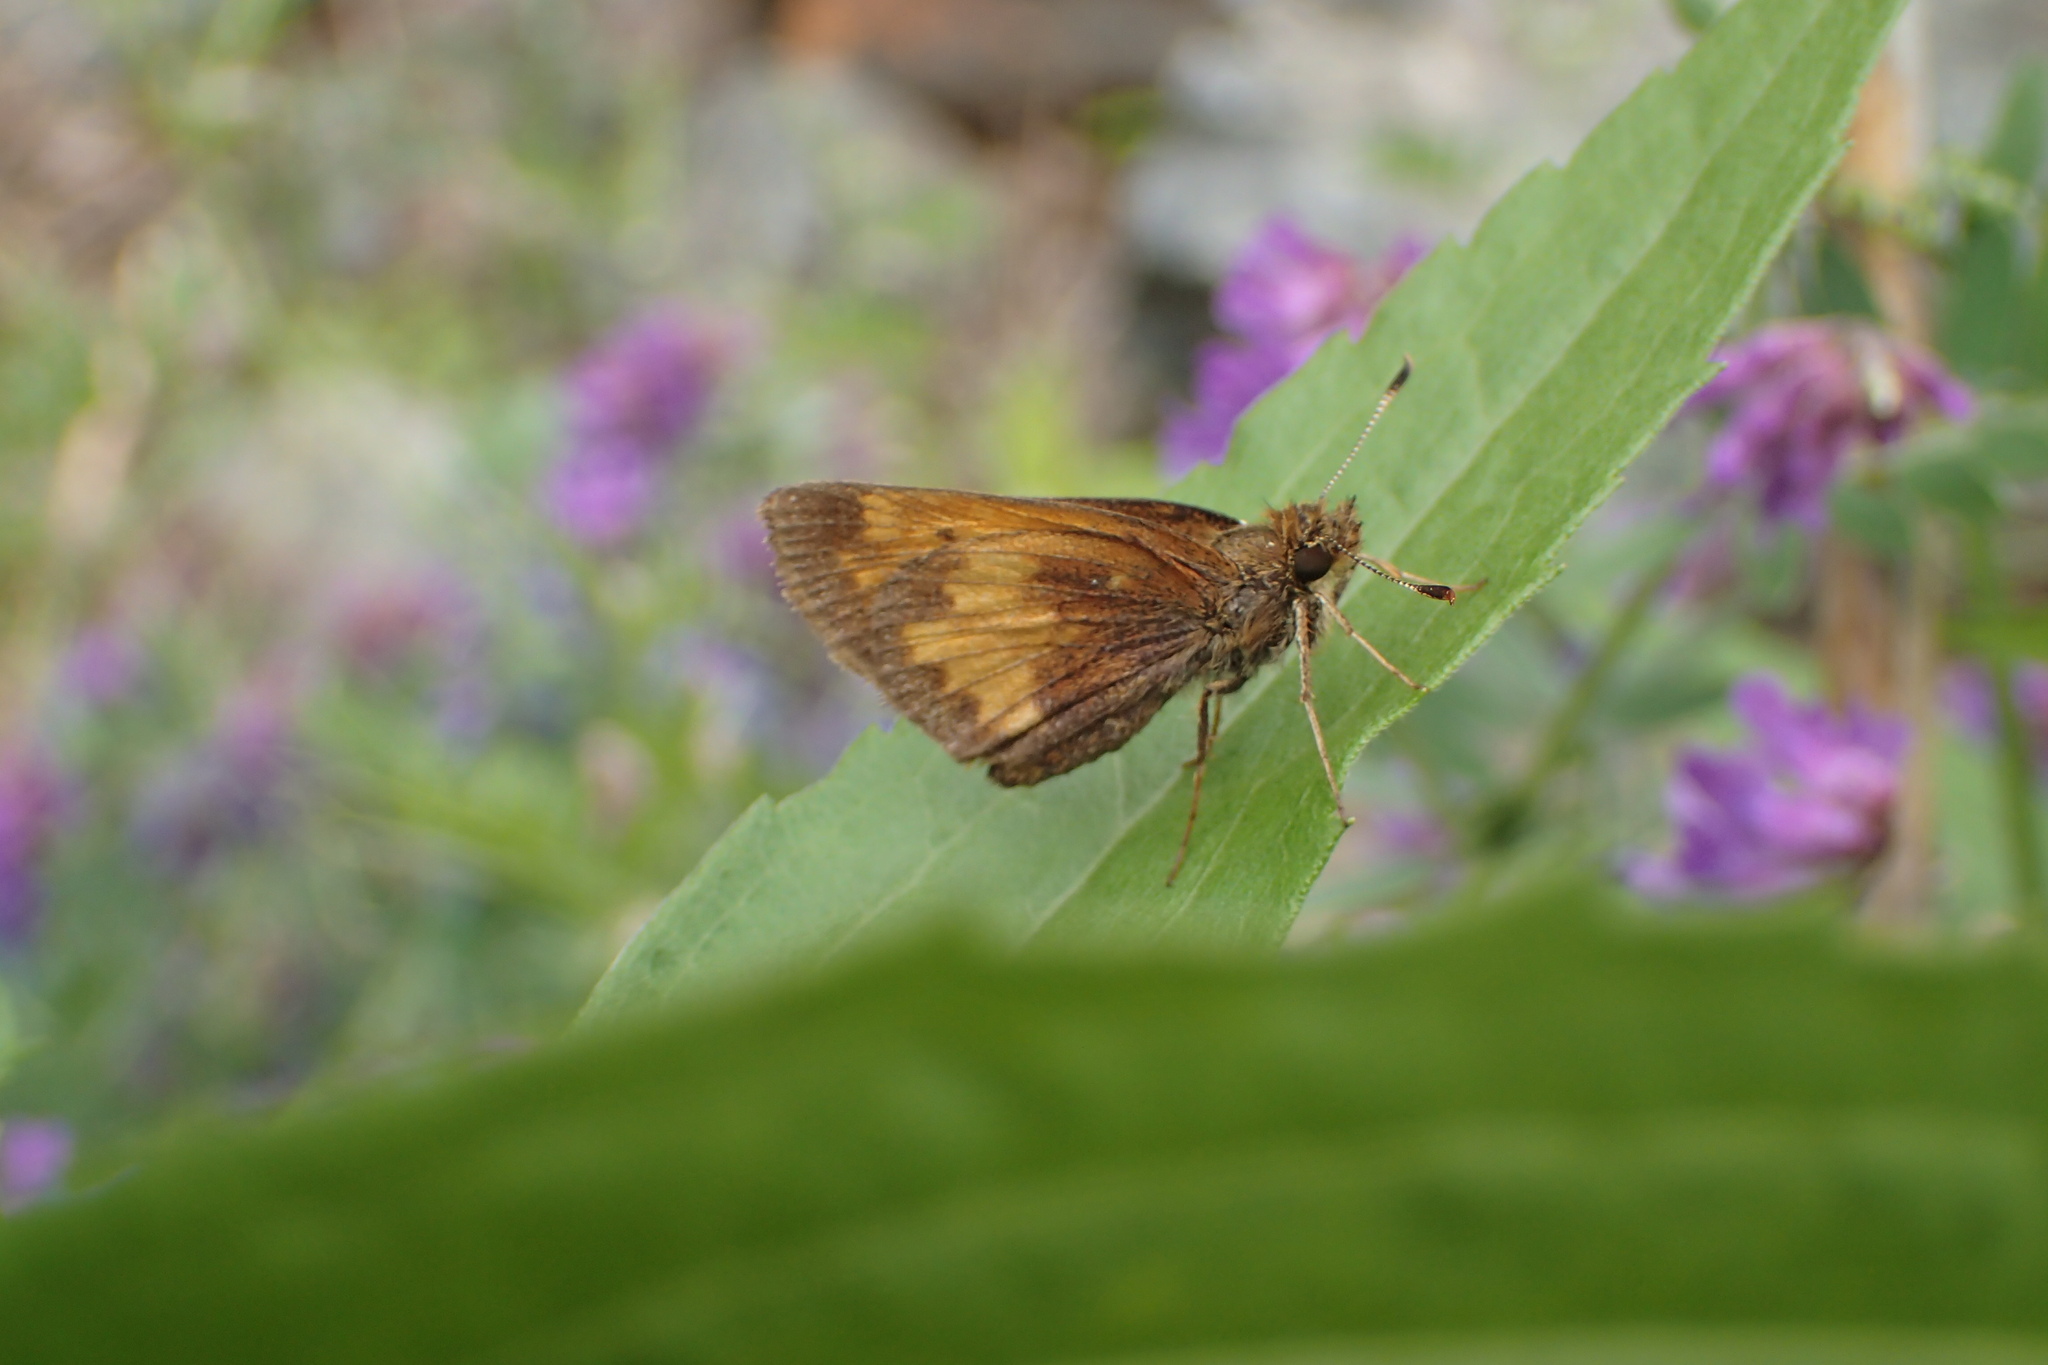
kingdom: Animalia
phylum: Arthropoda
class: Insecta
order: Lepidoptera
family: Hesperiidae
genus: Lon
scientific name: Lon hobomok
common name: Hobomok skipper
